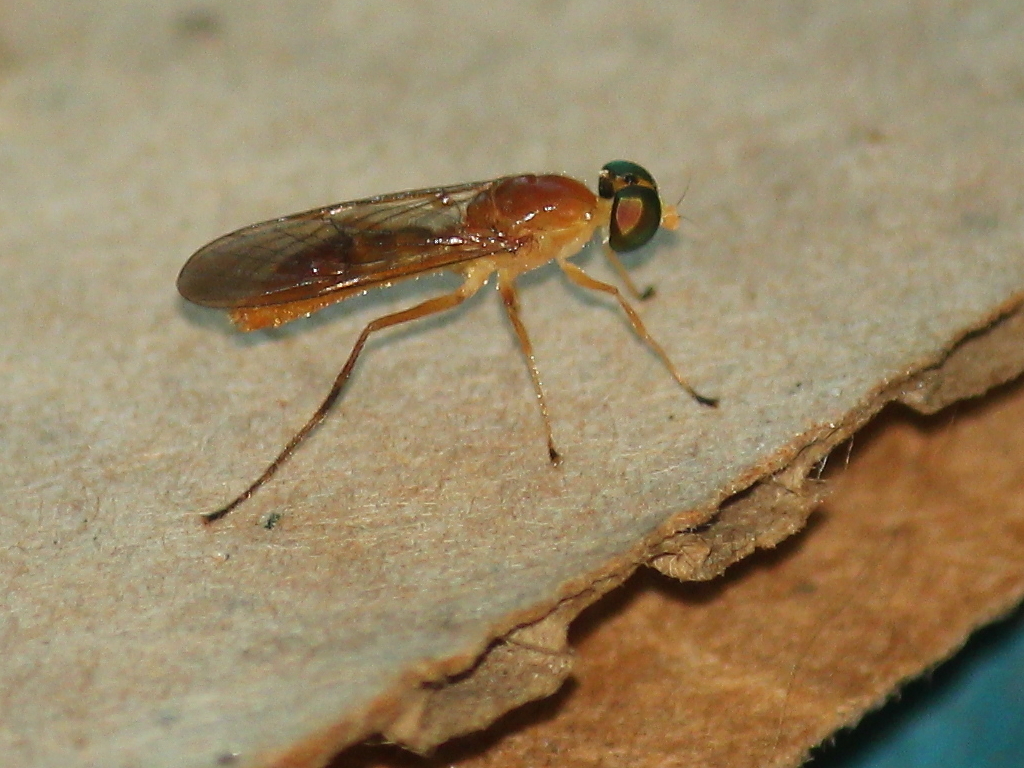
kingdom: Animalia
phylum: Arthropoda
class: Insecta
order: Diptera
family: Stratiomyidae
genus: Ptecticus
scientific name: Ptecticus trivittatus
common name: Compost fly
